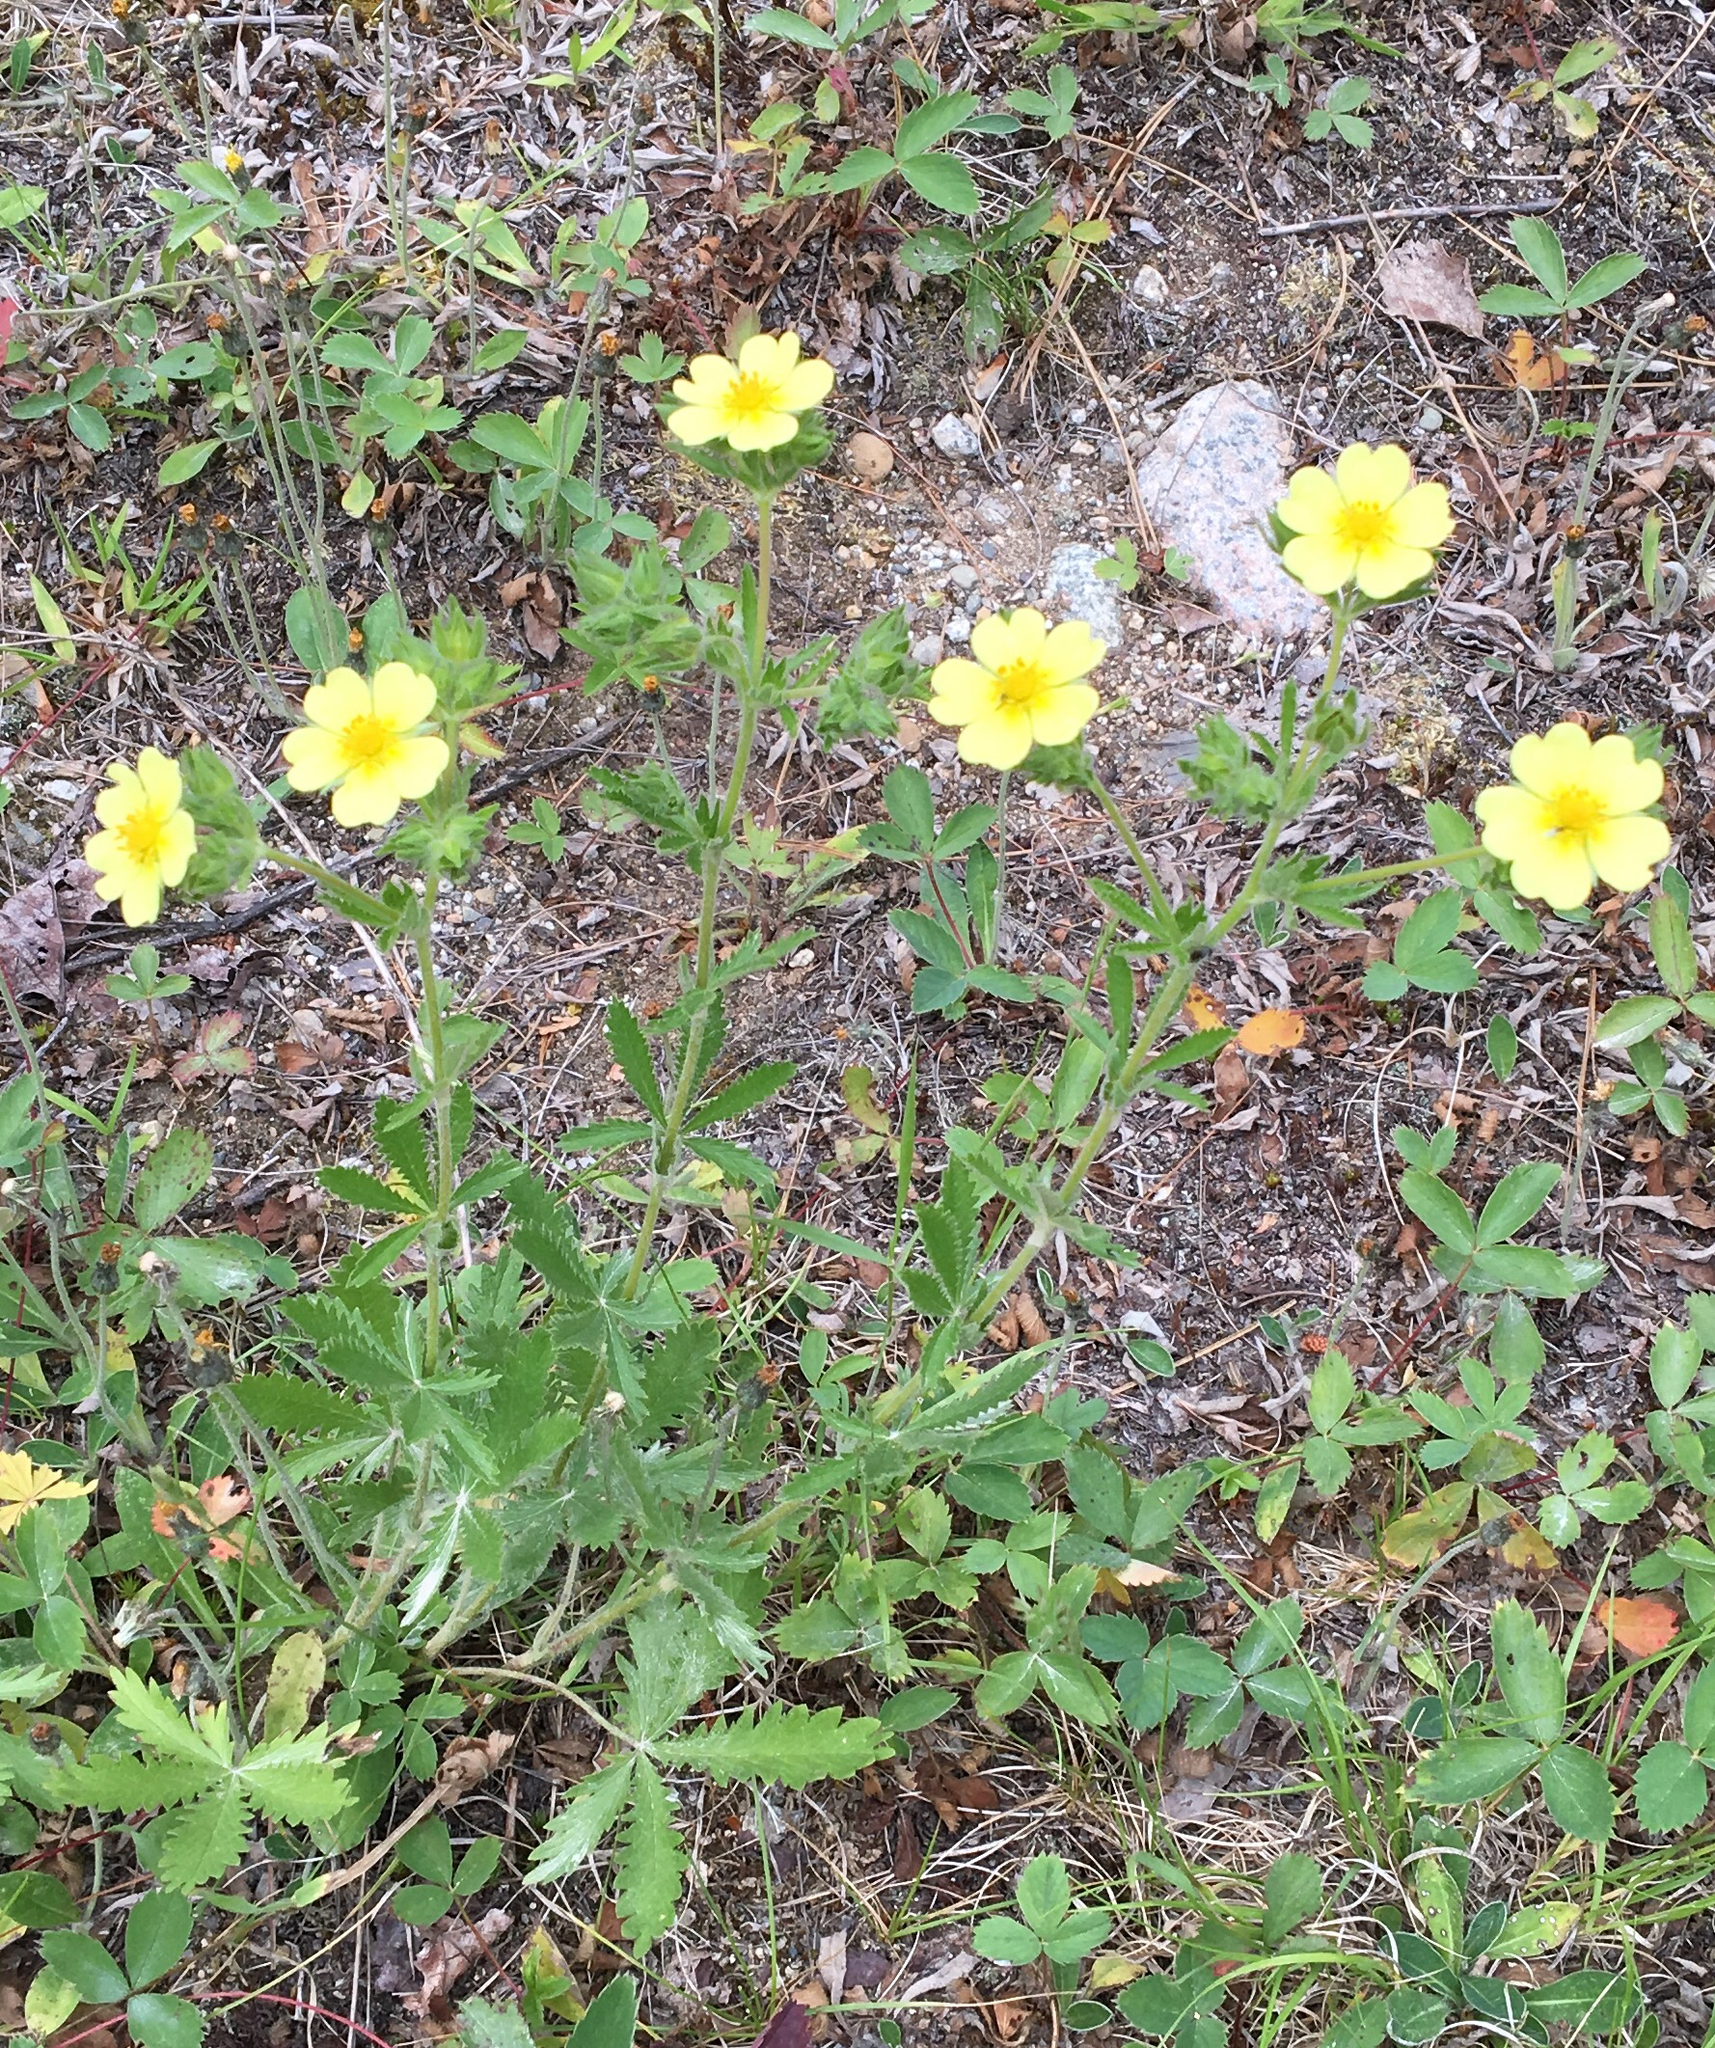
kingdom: Plantae
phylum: Tracheophyta
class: Magnoliopsida
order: Rosales
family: Rosaceae
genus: Potentilla
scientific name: Potentilla recta
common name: Sulphur cinquefoil
